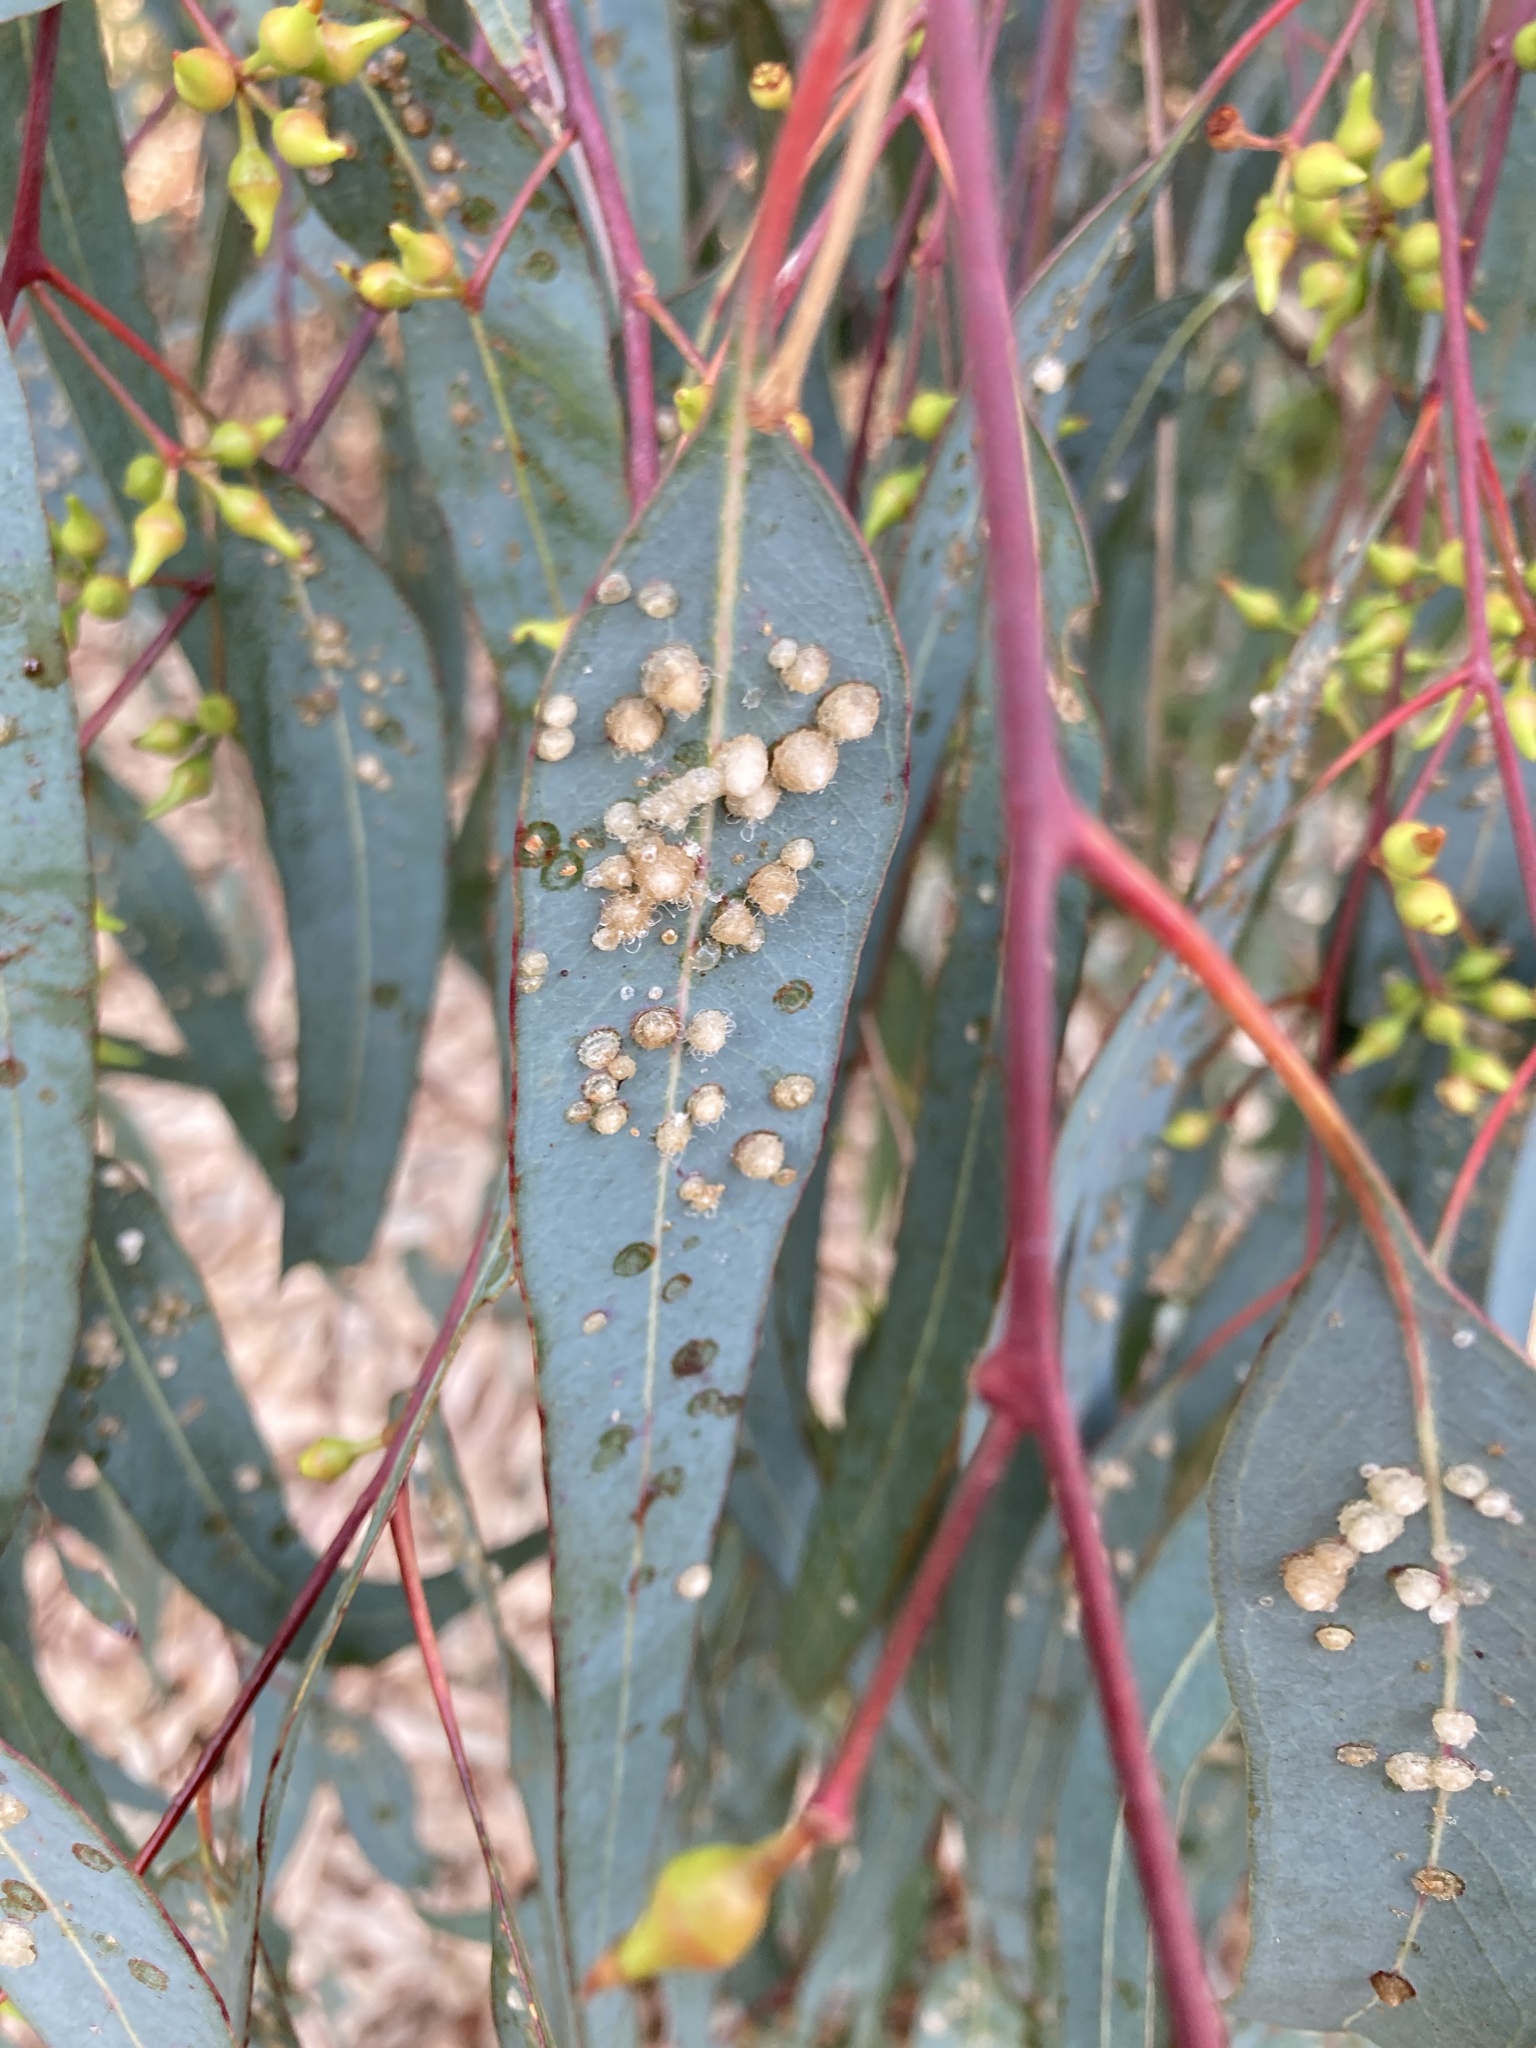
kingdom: Animalia
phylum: Arthropoda
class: Insecta
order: Hemiptera
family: Aphalaridae
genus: Glycaspis
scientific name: Glycaspis brimblecombei
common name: Red gum lerp psyllid
